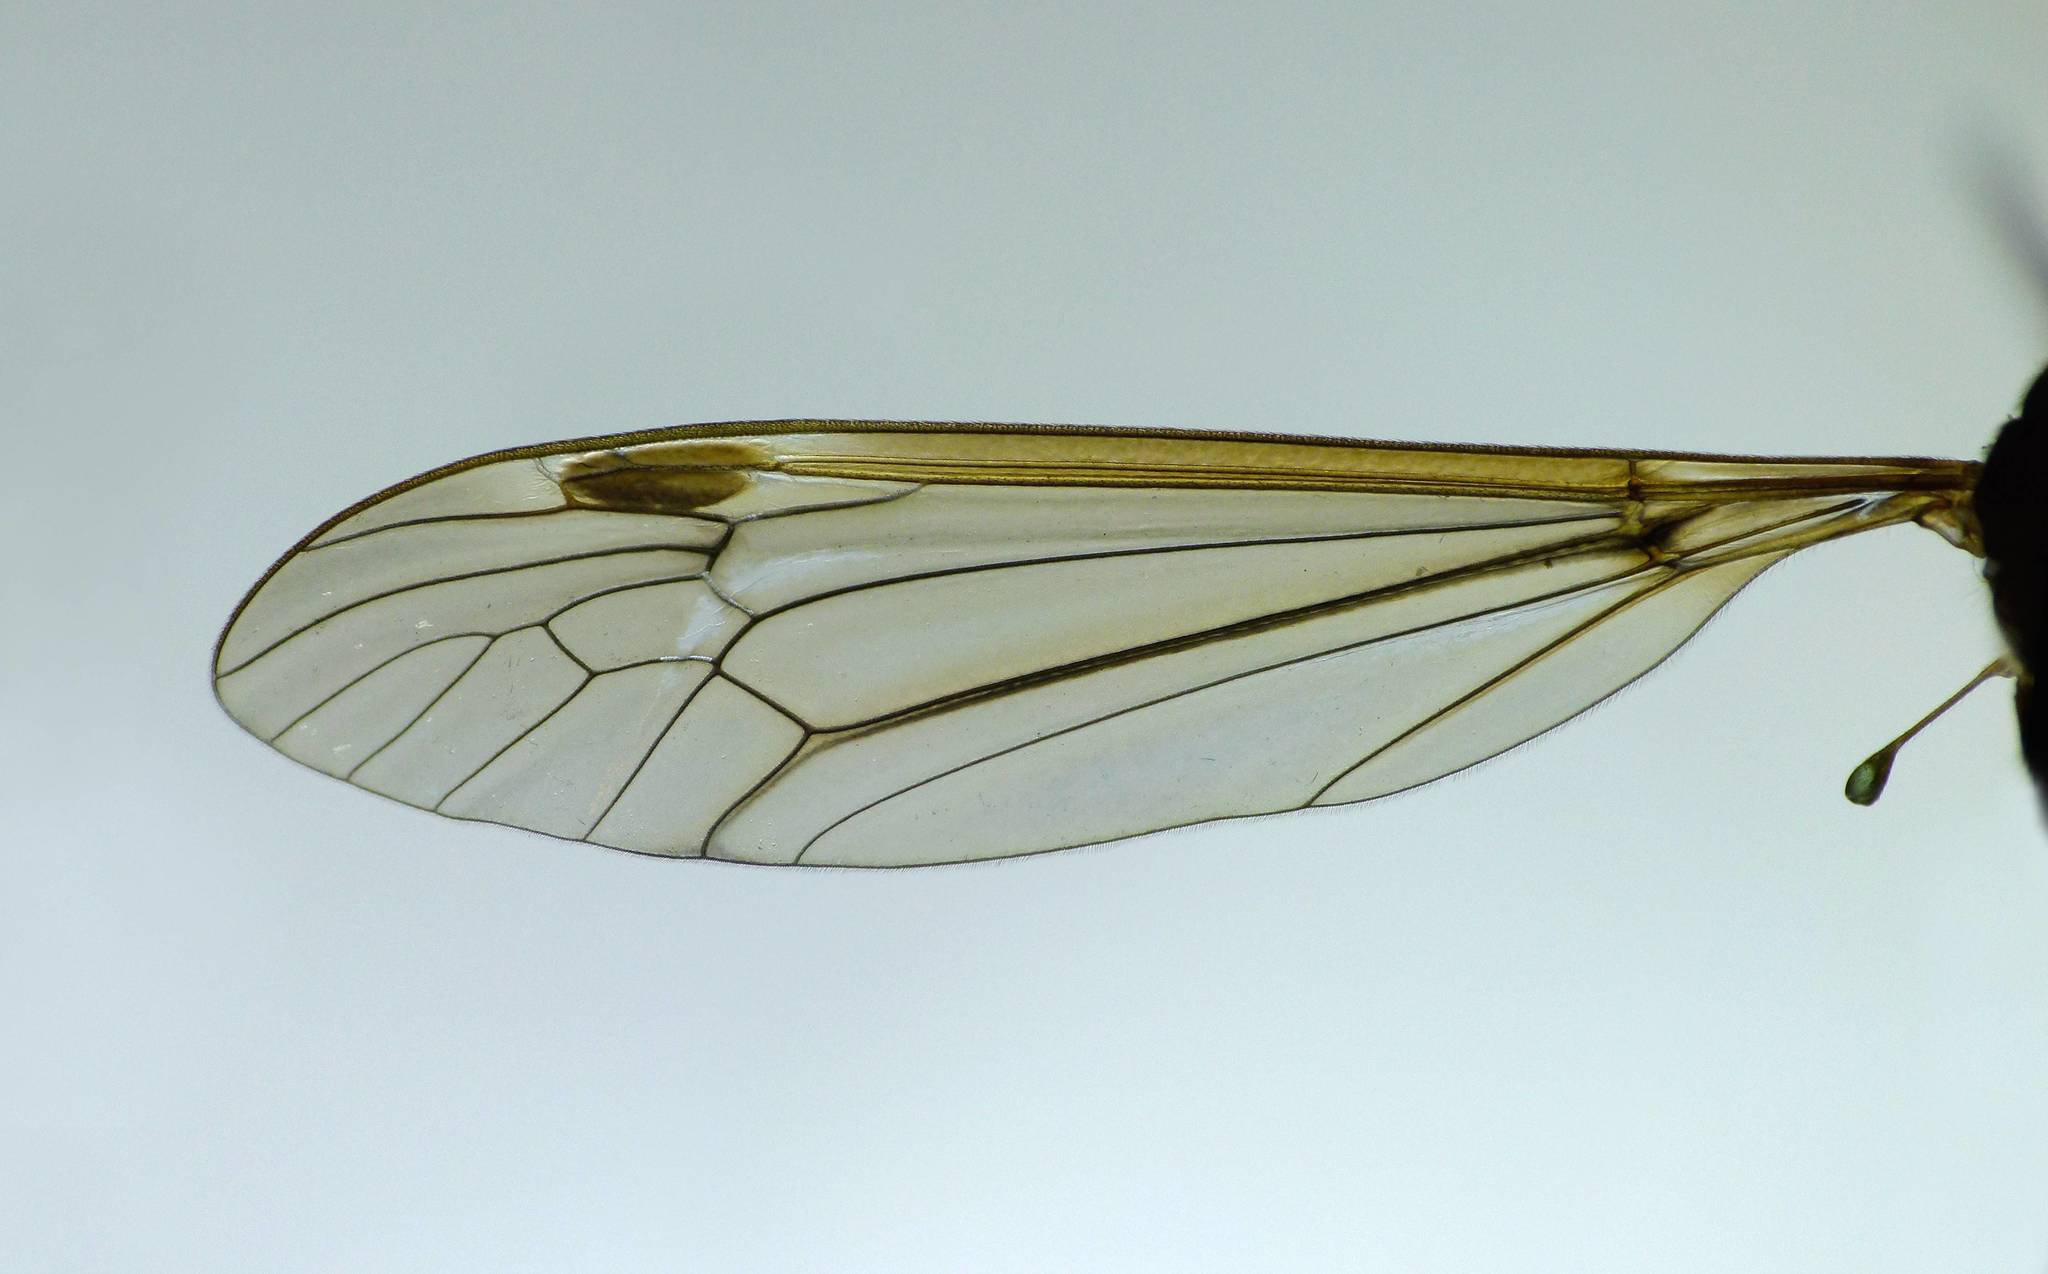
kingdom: Animalia
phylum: Arthropoda
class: Insecta
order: Diptera
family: Tipulidae
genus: Leptotarsus
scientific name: Leptotarsus zeylandiae
